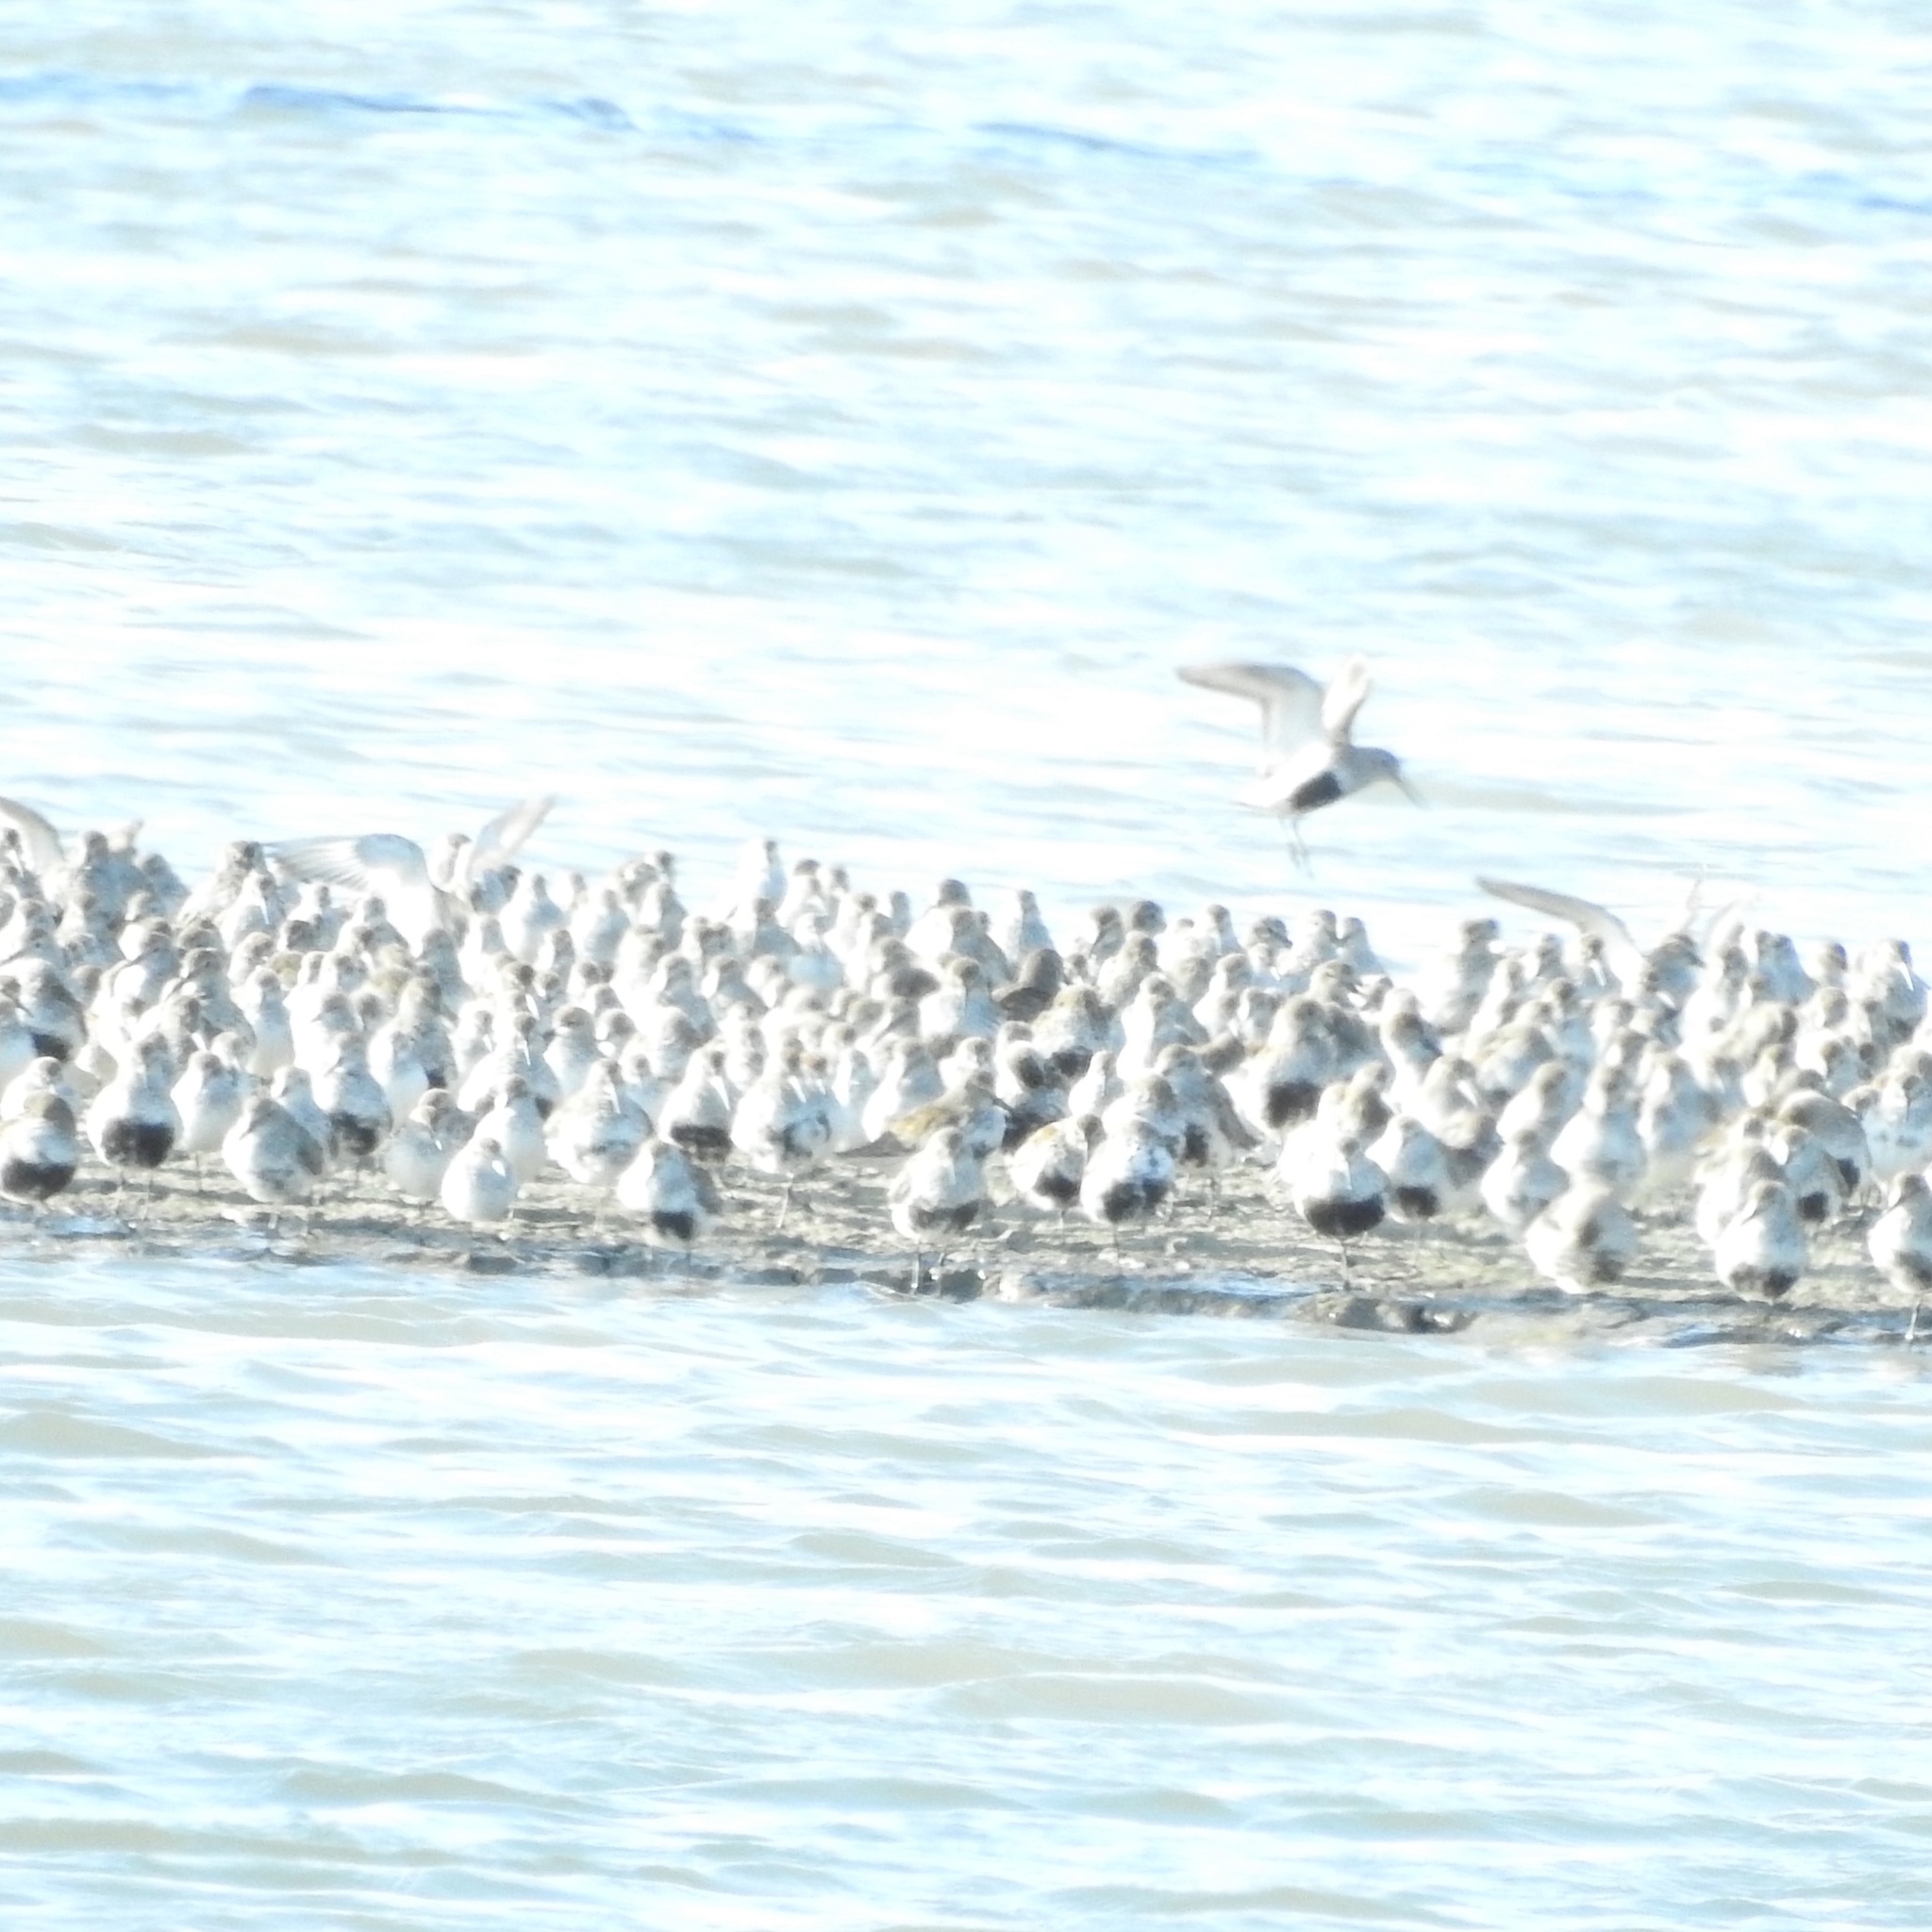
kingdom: Animalia
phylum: Chordata
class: Aves
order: Charadriiformes
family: Scolopacidae
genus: Calidris
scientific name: Calidris alpina
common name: Dunlin
